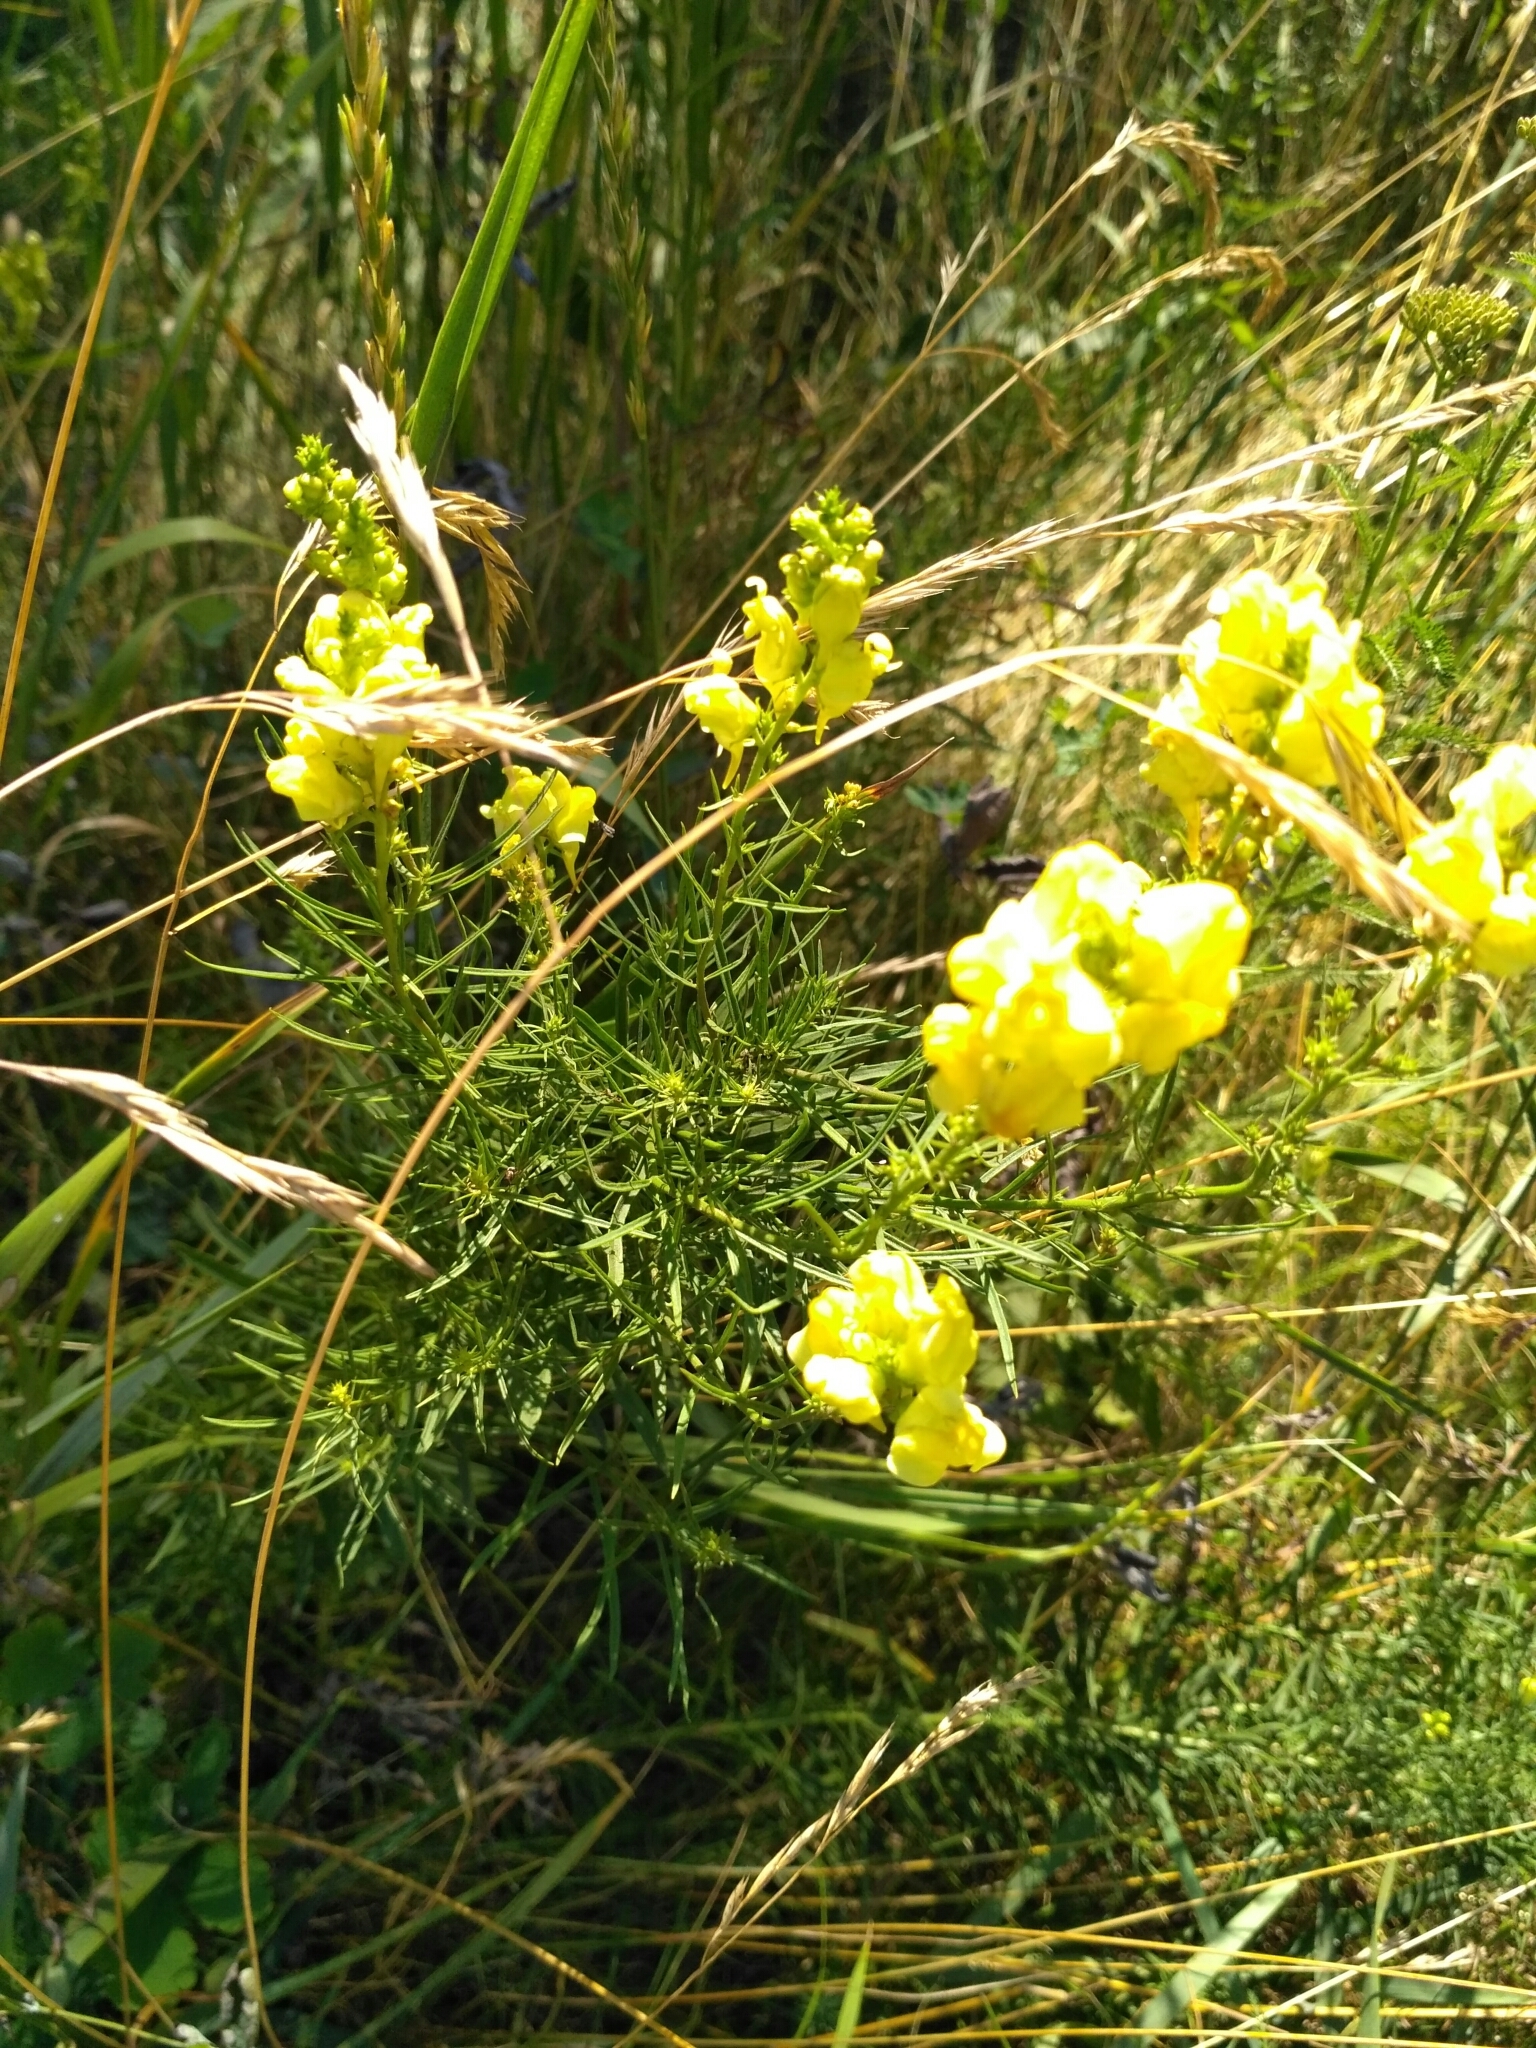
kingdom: Plantae
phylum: Tracheophyta
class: Magnoliopsida
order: Lamiales
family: Plantaginaceae
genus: Linaria
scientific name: Linaria vulgaris
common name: Butter and eggs
